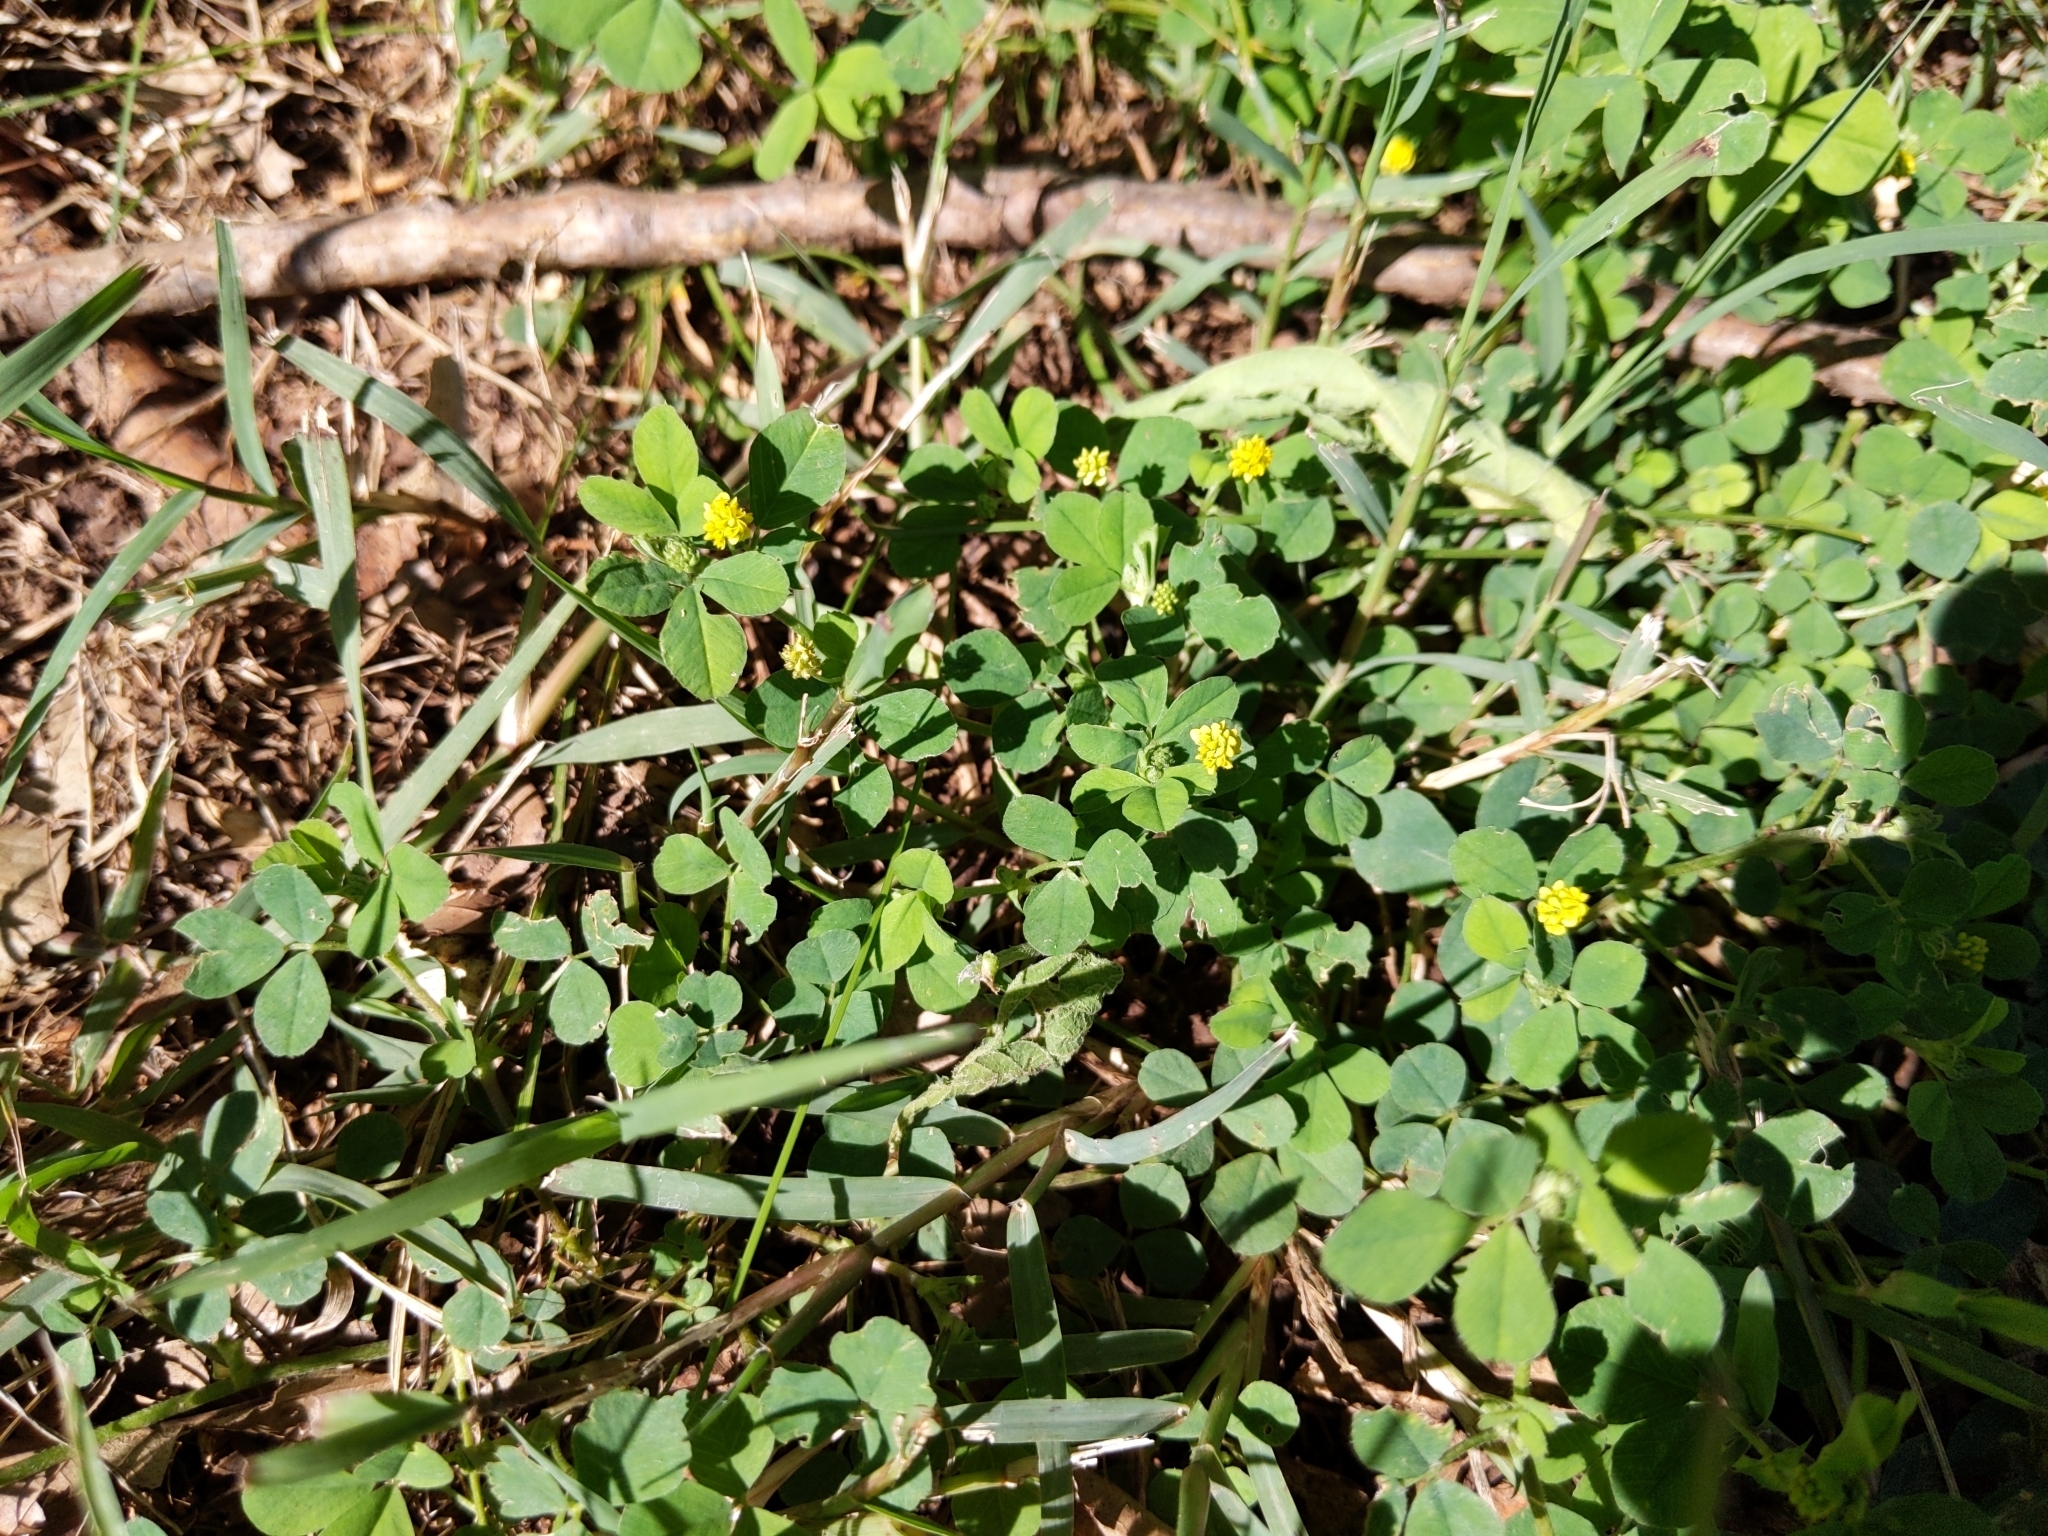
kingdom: Plantae
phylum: Tracheophyta
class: Magnoliopsida
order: Fabales
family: Fabaceae
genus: Medicago
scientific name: Medicago lupulina
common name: Black medick
